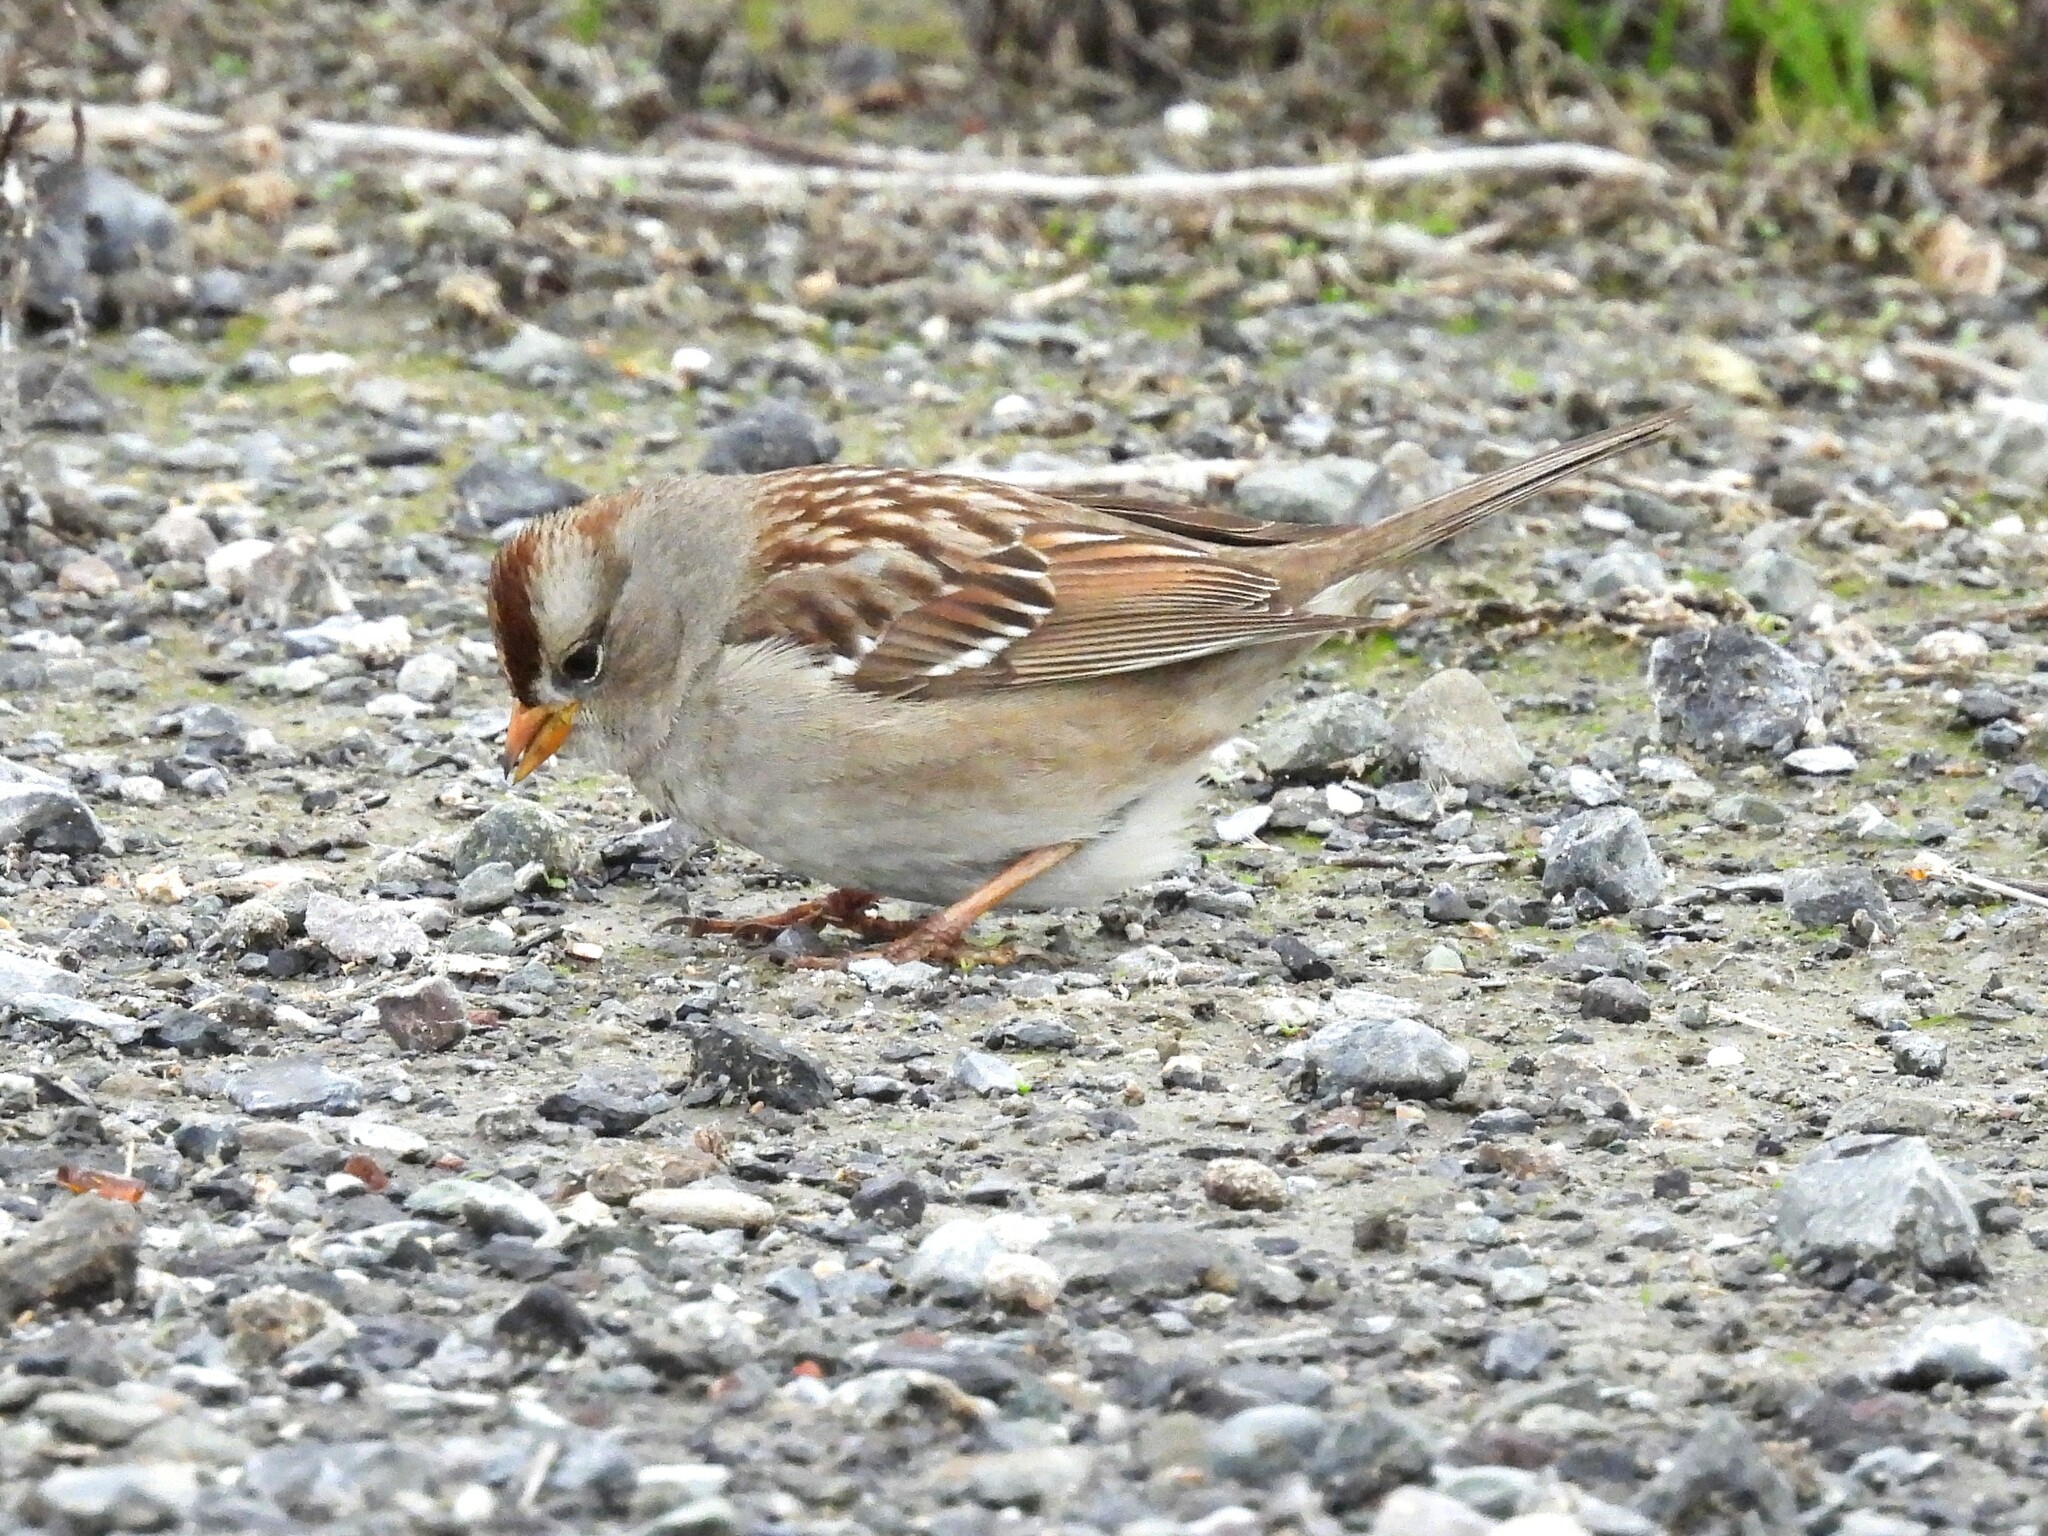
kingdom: Animalia
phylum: Chordata
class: Aves
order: Passeriformes
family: Passerellidae
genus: Zonotrichia
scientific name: Zonotrichia leucophrys
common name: White-crowned sparrow
